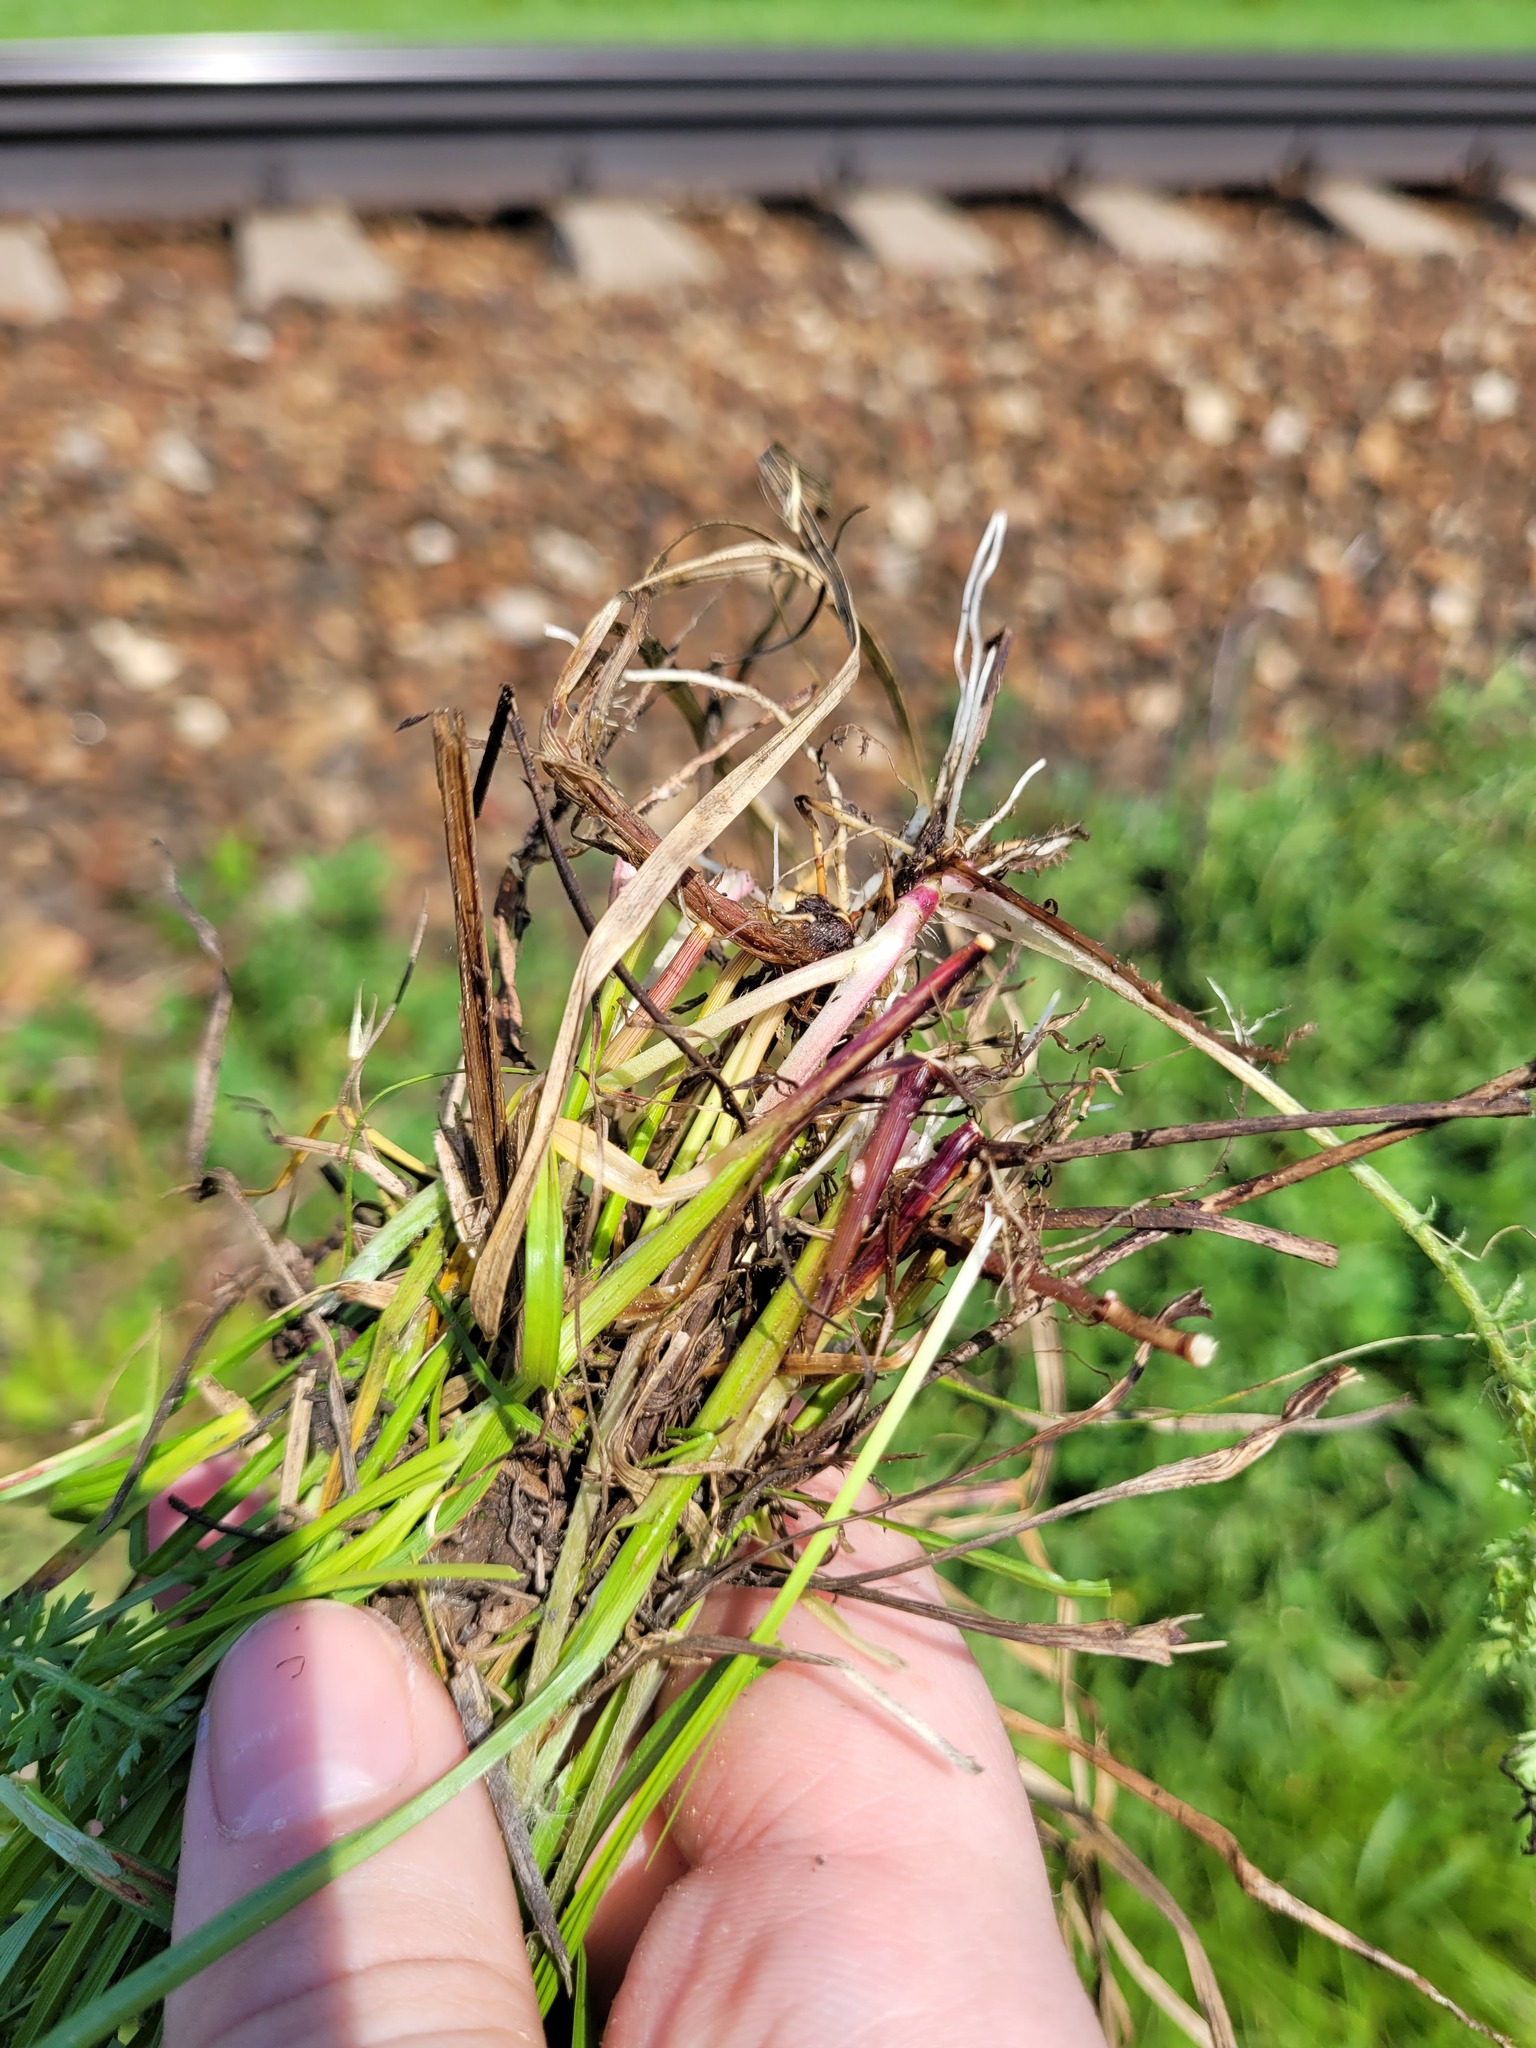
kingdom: Plantae
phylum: Tracheophyta
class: Liliopsida
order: Poales
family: Cyperaceae
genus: Carex
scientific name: Carex spicata
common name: Spiked sedge
